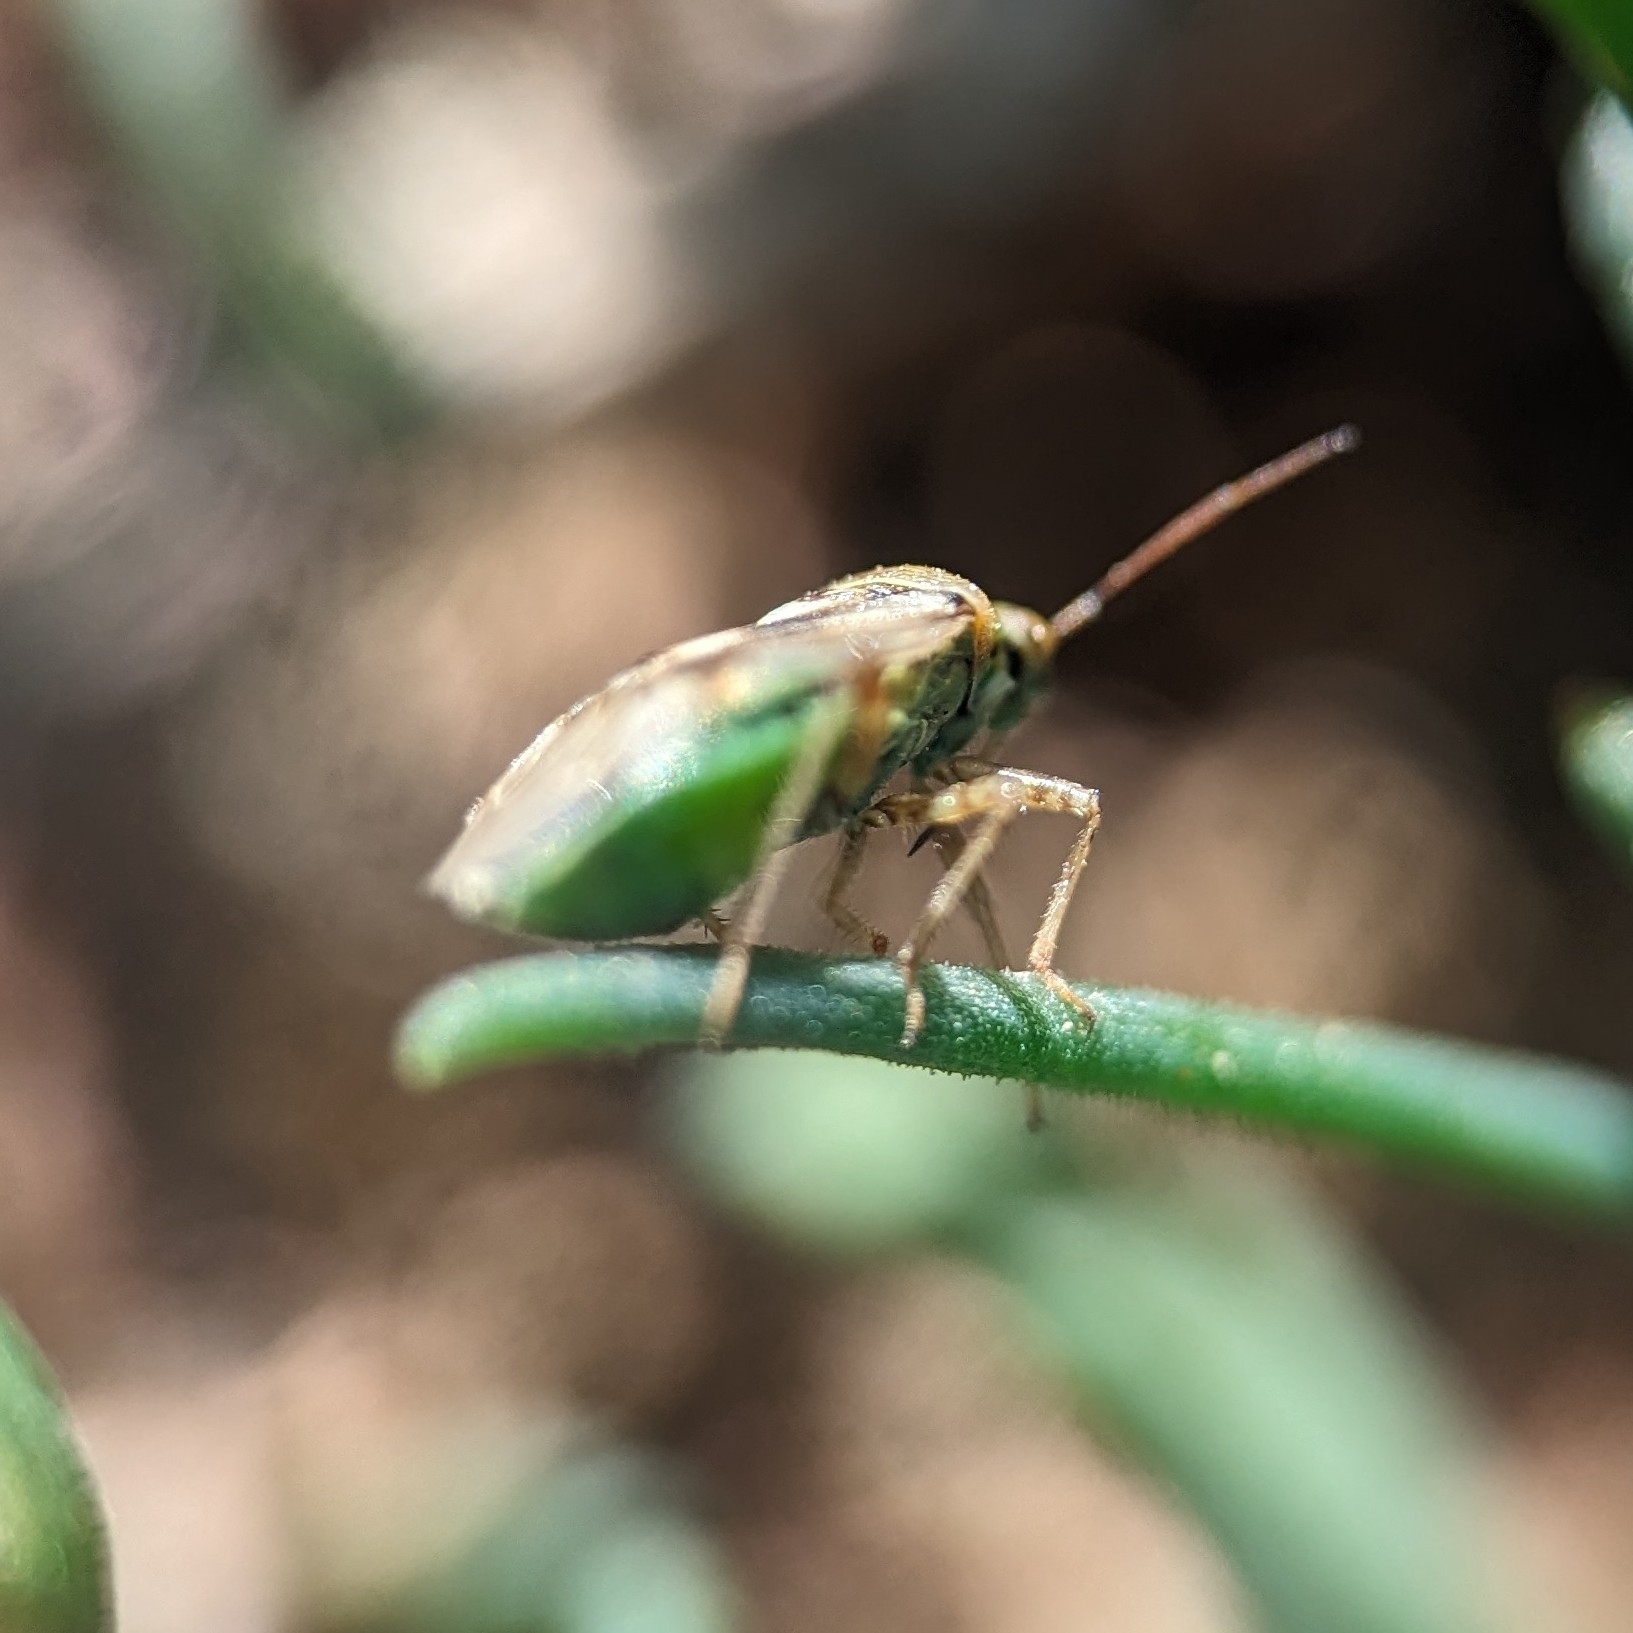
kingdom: Animalia
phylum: Arthropoda
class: Insecta
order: Hemiptera
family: Miridae
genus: Lygus
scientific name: Lygus lineolaris
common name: North american tarnished plant bug
